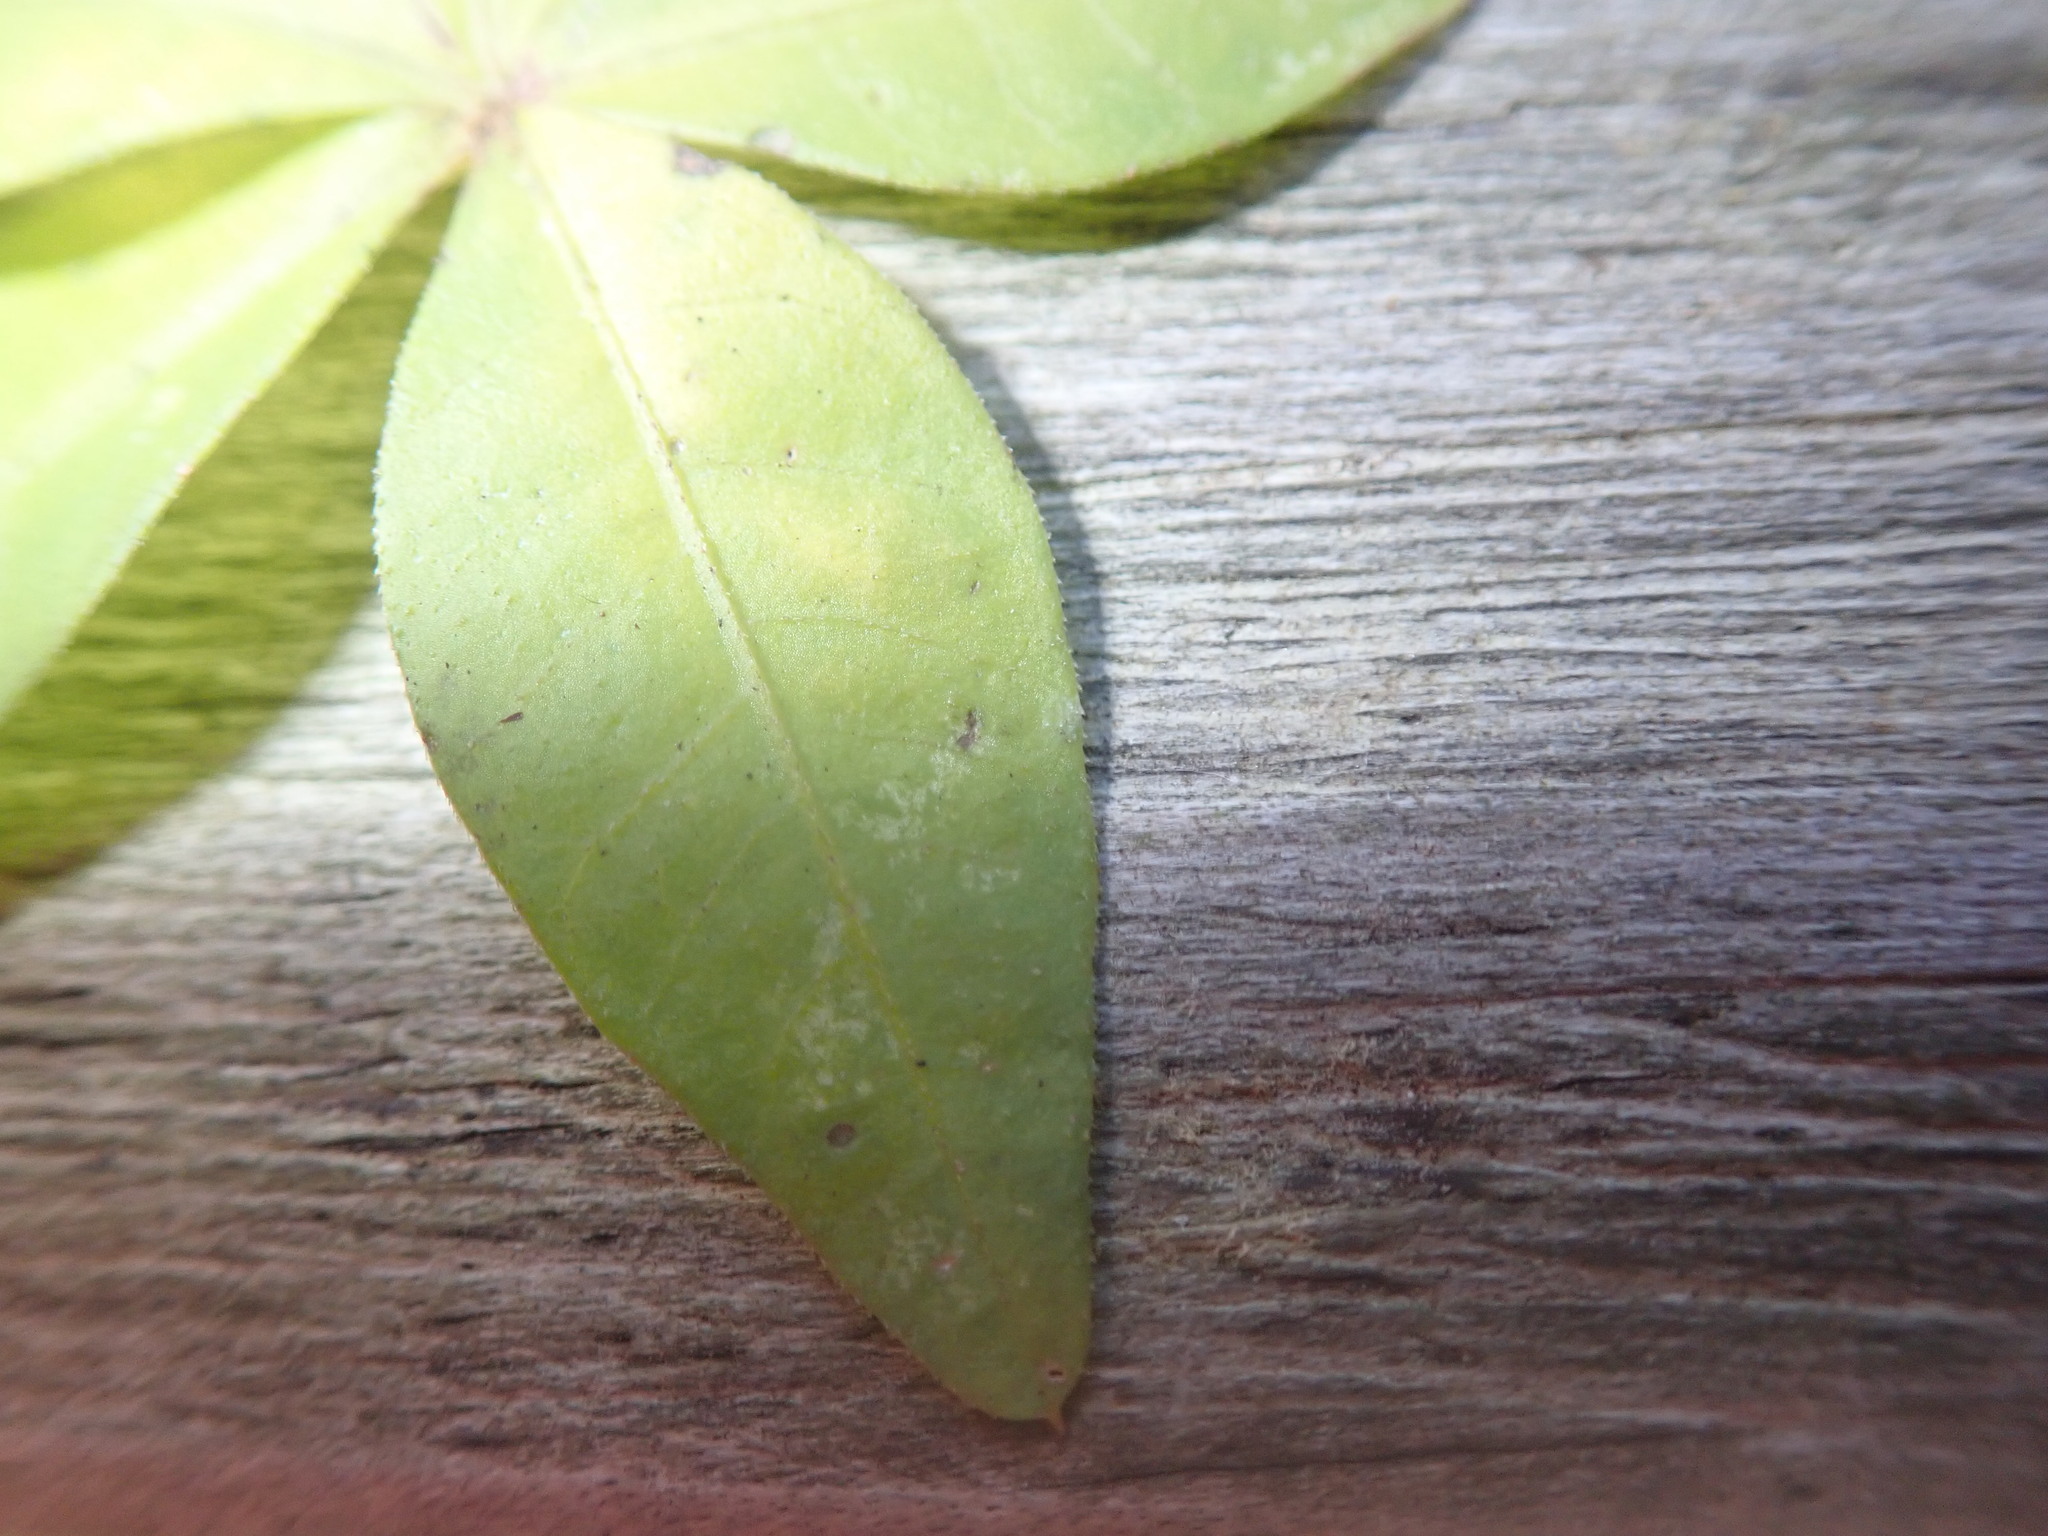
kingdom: Plantae
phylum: Tracheophyta
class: Magnoliopsida
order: Solanales
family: Convolvulaceae
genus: Ipomoea
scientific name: Ipomoea cairica
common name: Mile a minute vine
